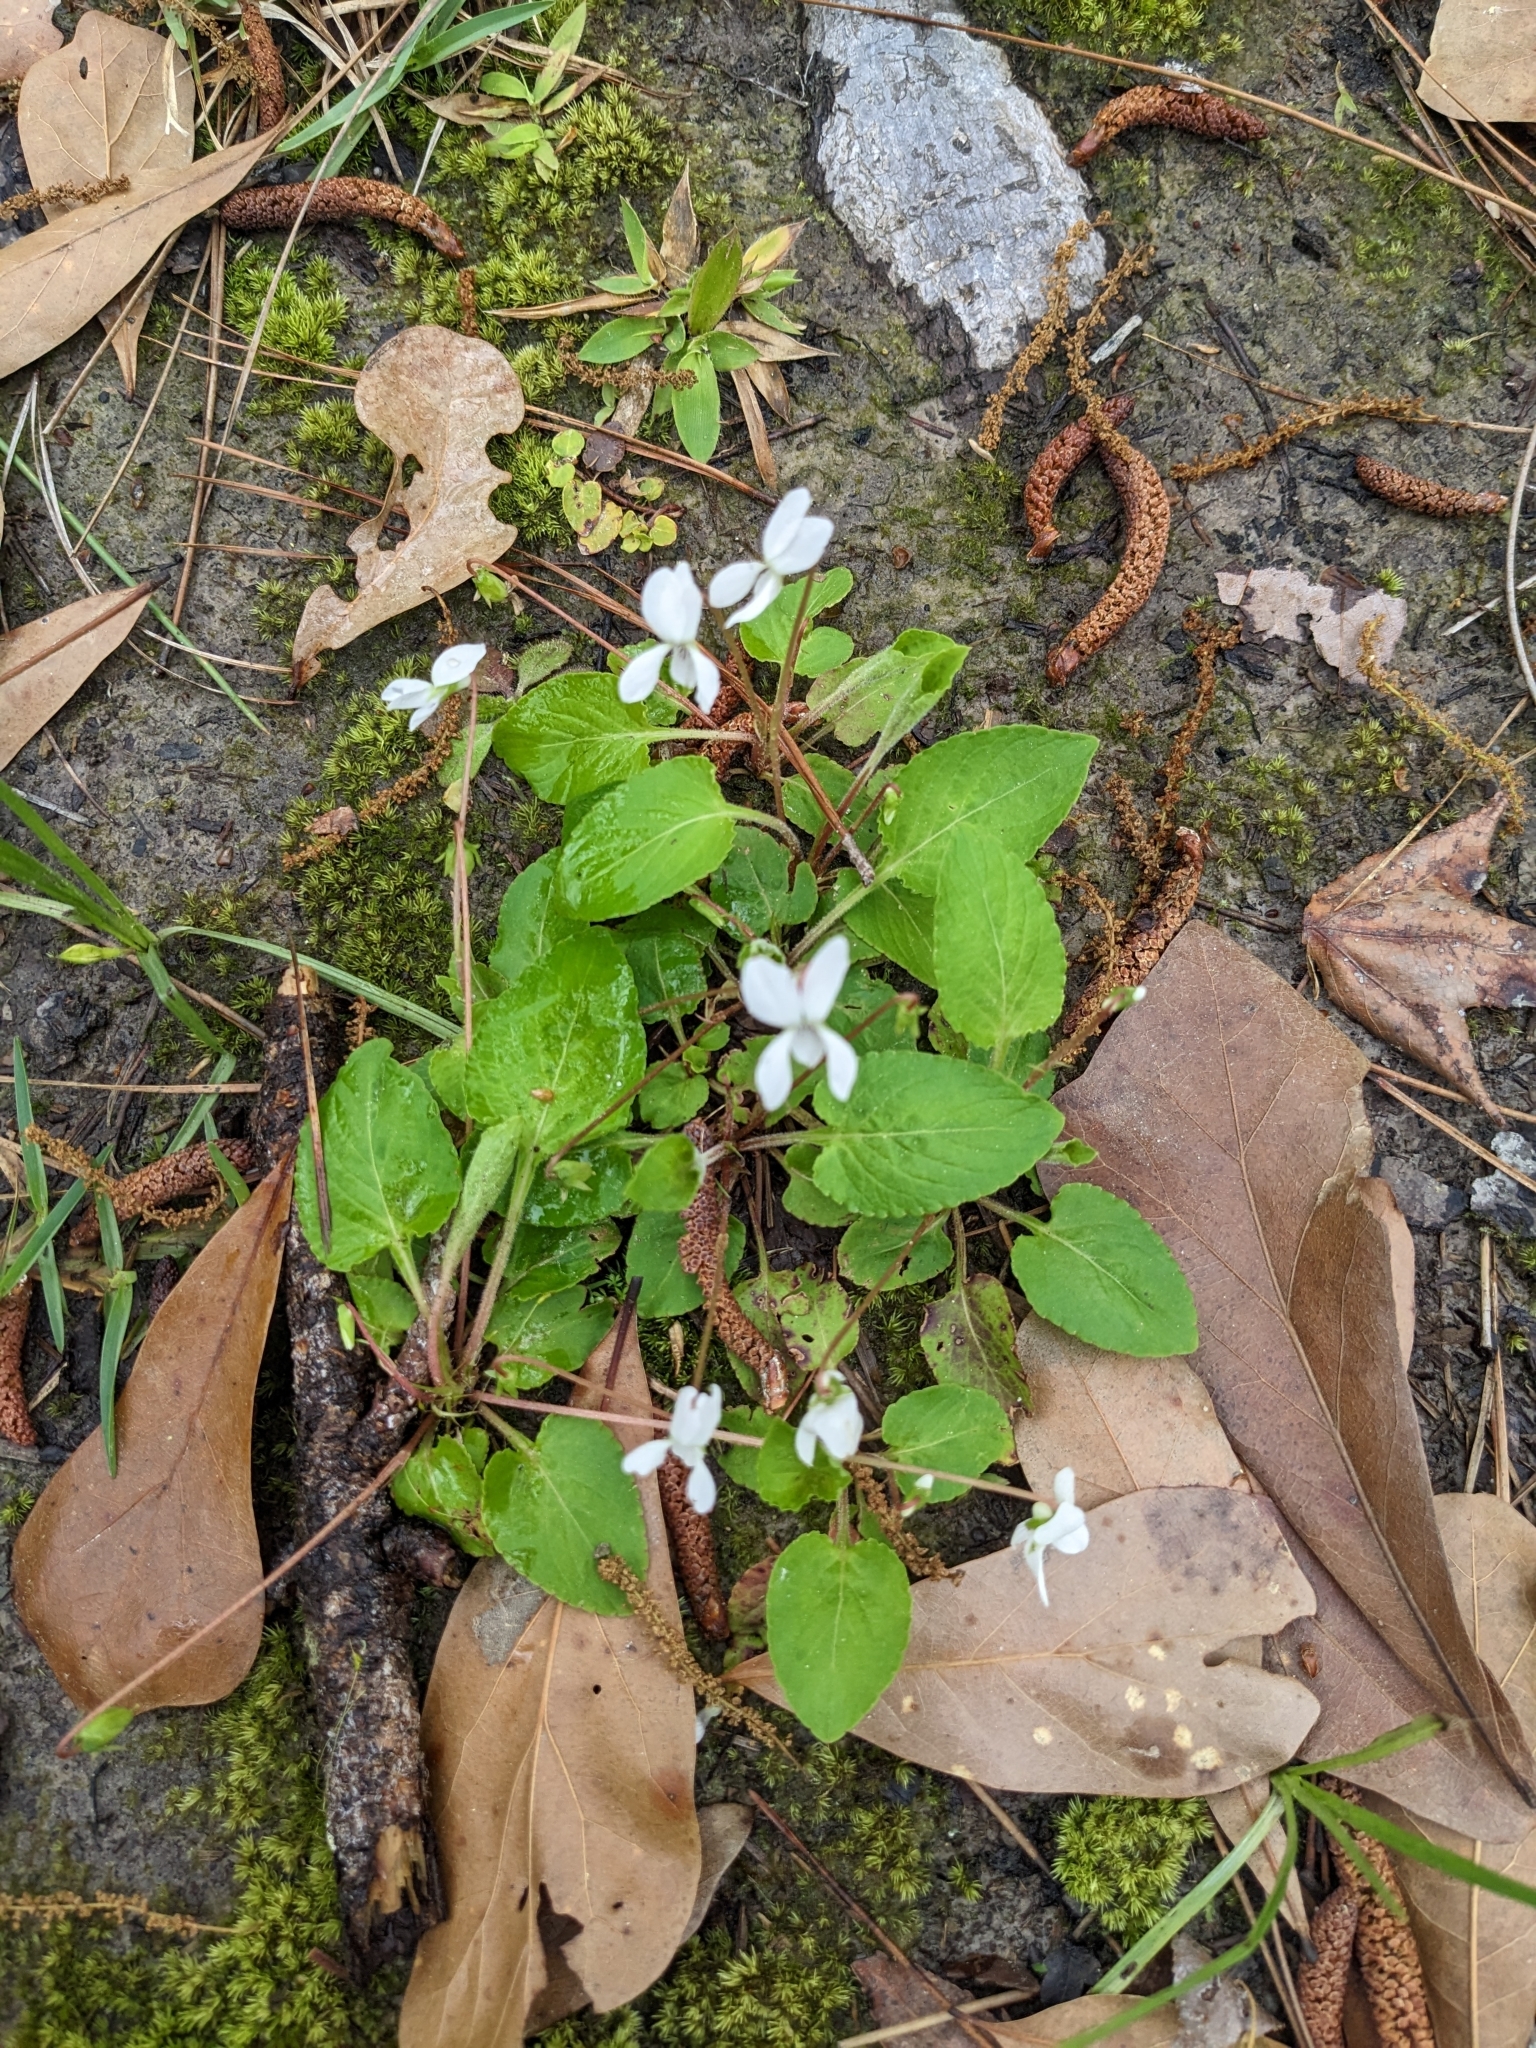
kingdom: Plantae
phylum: Tracheophyta
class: Magnoliopsida
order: Malpighiales
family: Violaceae
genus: Viola
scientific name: Viola primulifolia
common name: Primrose-leaf violet
